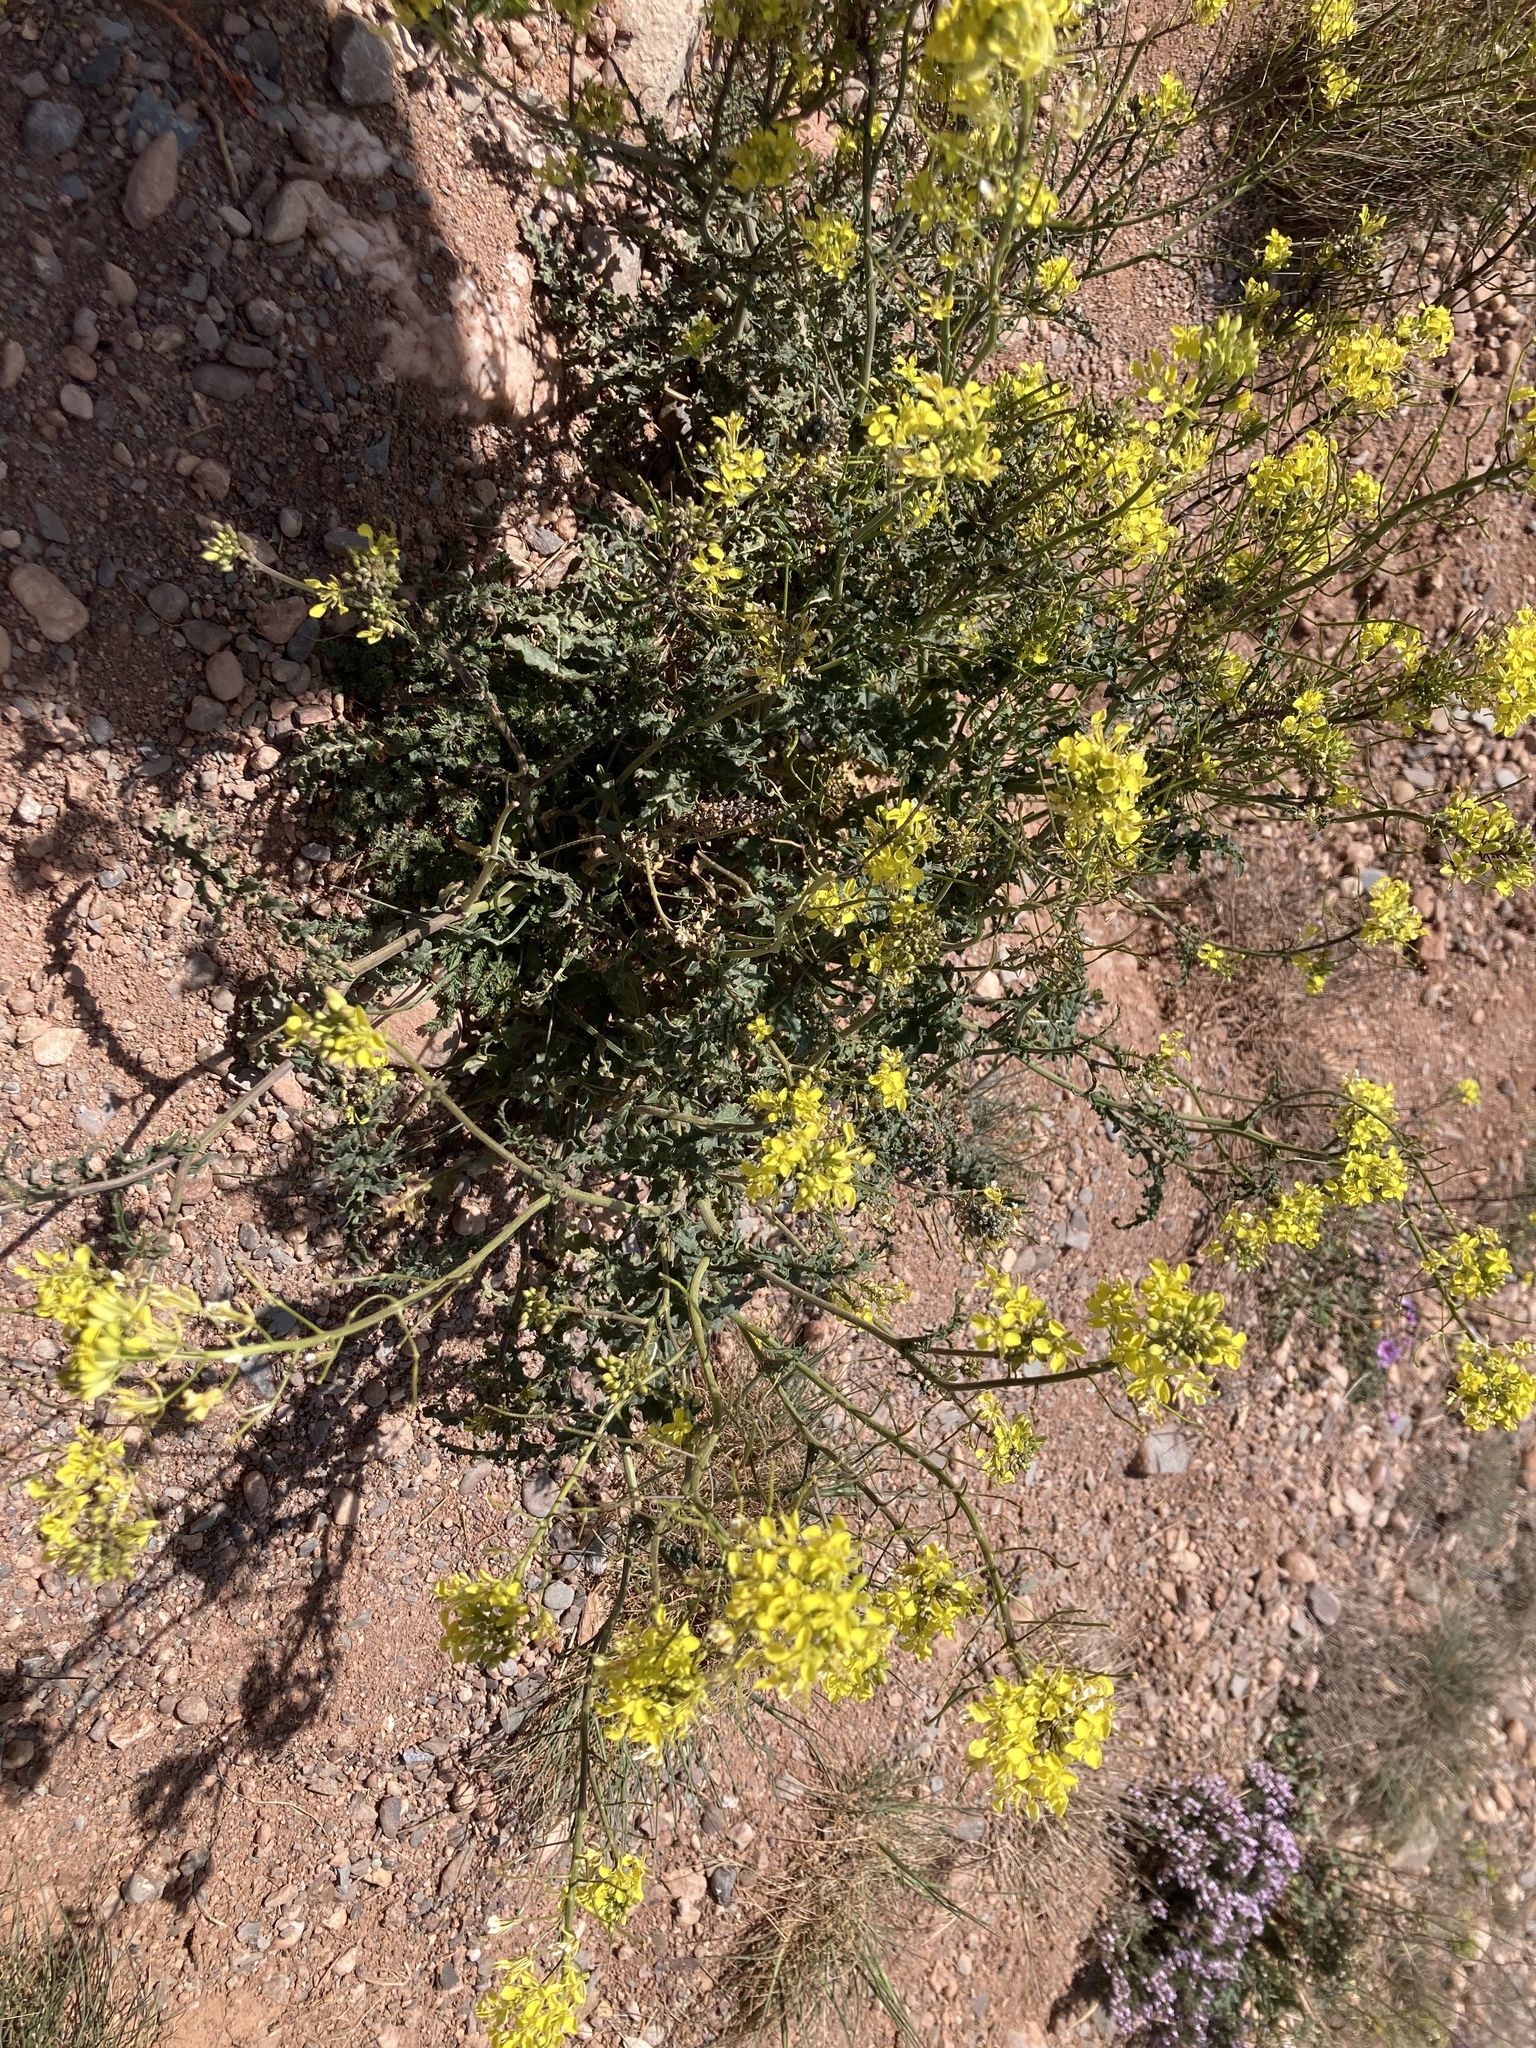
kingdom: Plantae
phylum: Tracheophyta
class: Magnoliopsida
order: Brassicales
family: Brassicaceae
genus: Erucastrum
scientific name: Erucastrum nasturtiifolium
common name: Watercress-leaf rocket
